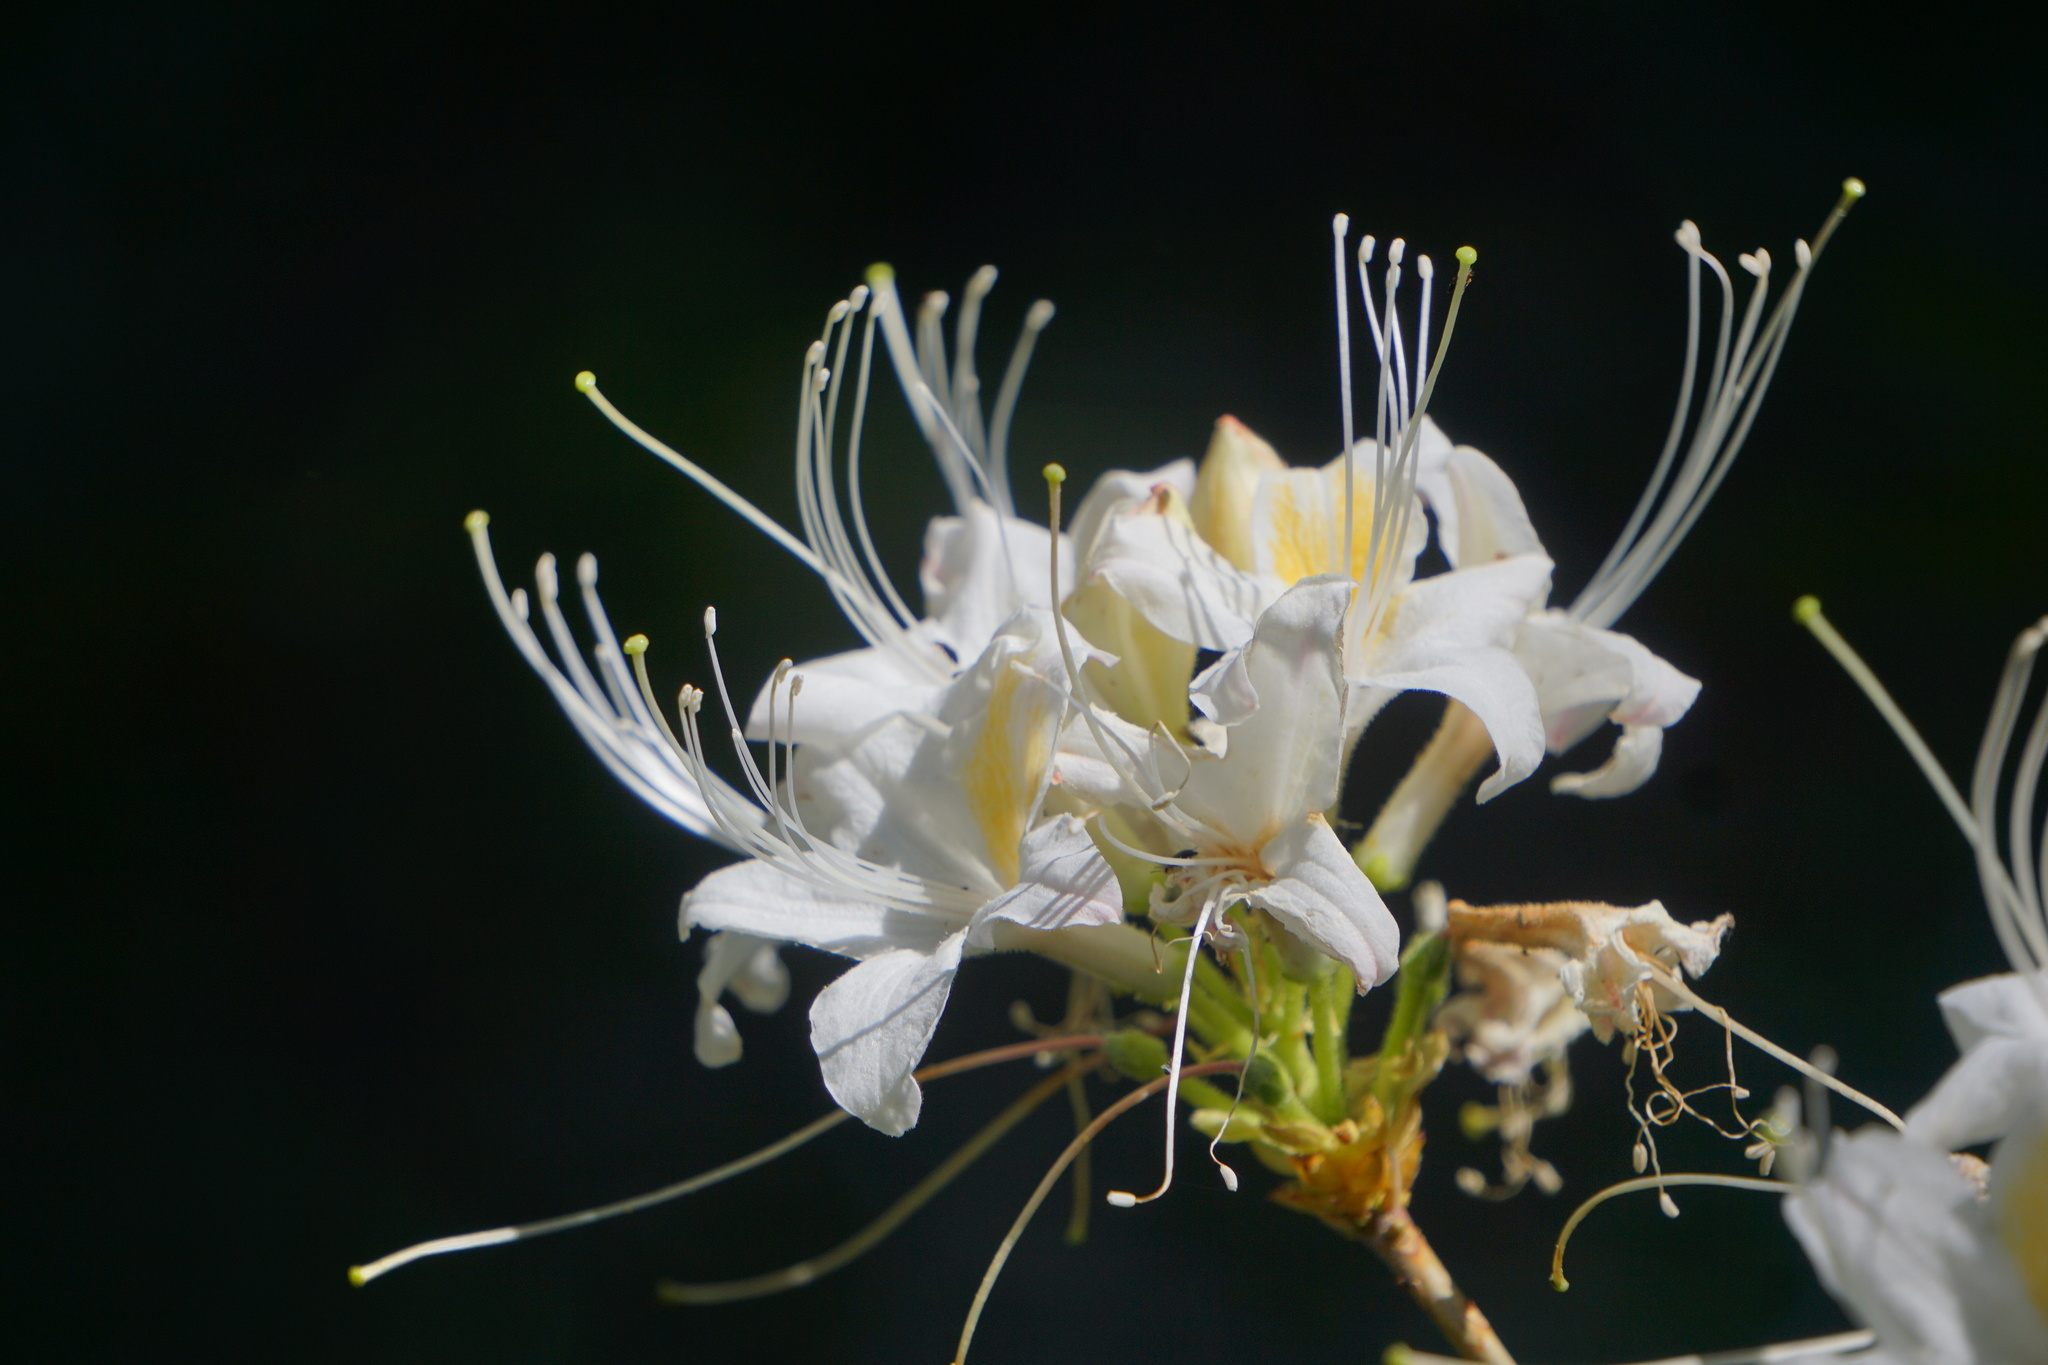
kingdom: Plantae
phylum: Tracheophyta
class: Magnoliopsida
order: Ericales
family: Ericaceae
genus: Rhododendron
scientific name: Rhododendron occidentale
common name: Western azalea
